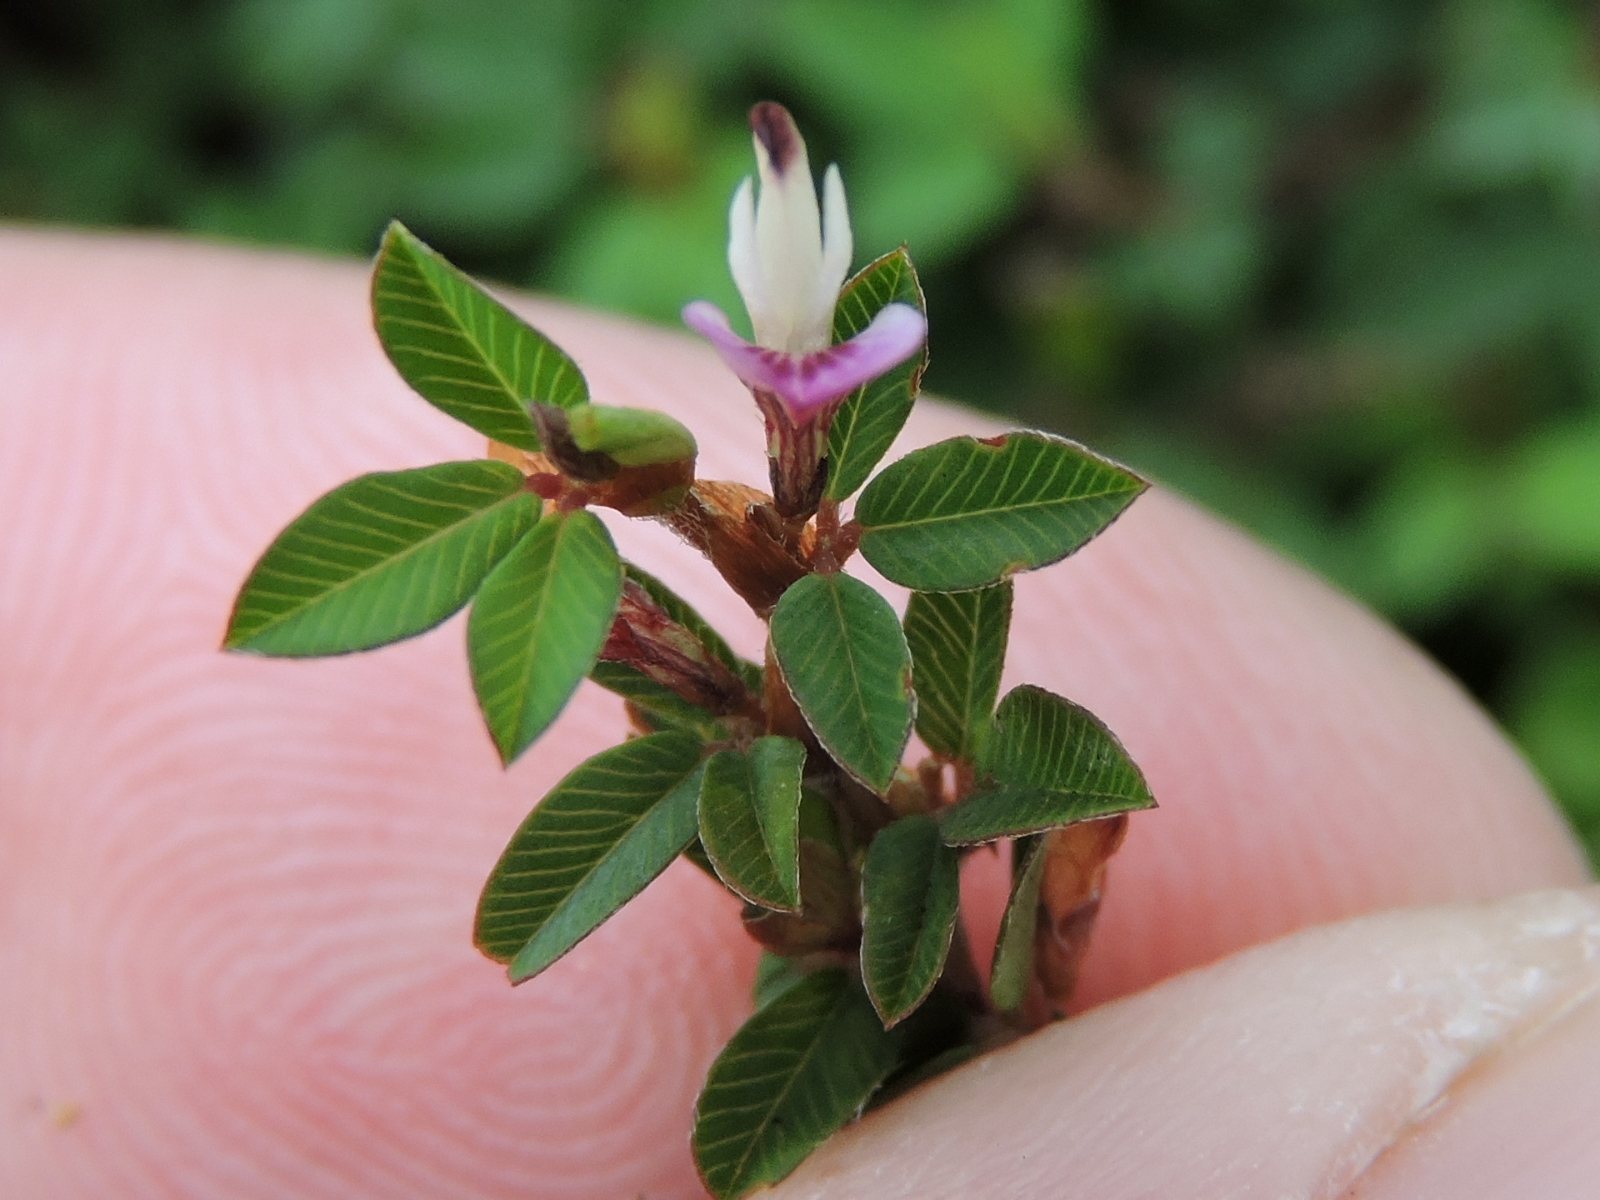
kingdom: Plantae
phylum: Tracheophyta
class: Magnoliopsida
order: Fabales
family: Fabaceae
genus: Kummerowia
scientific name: Kummerowia striata
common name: Japanese clover
